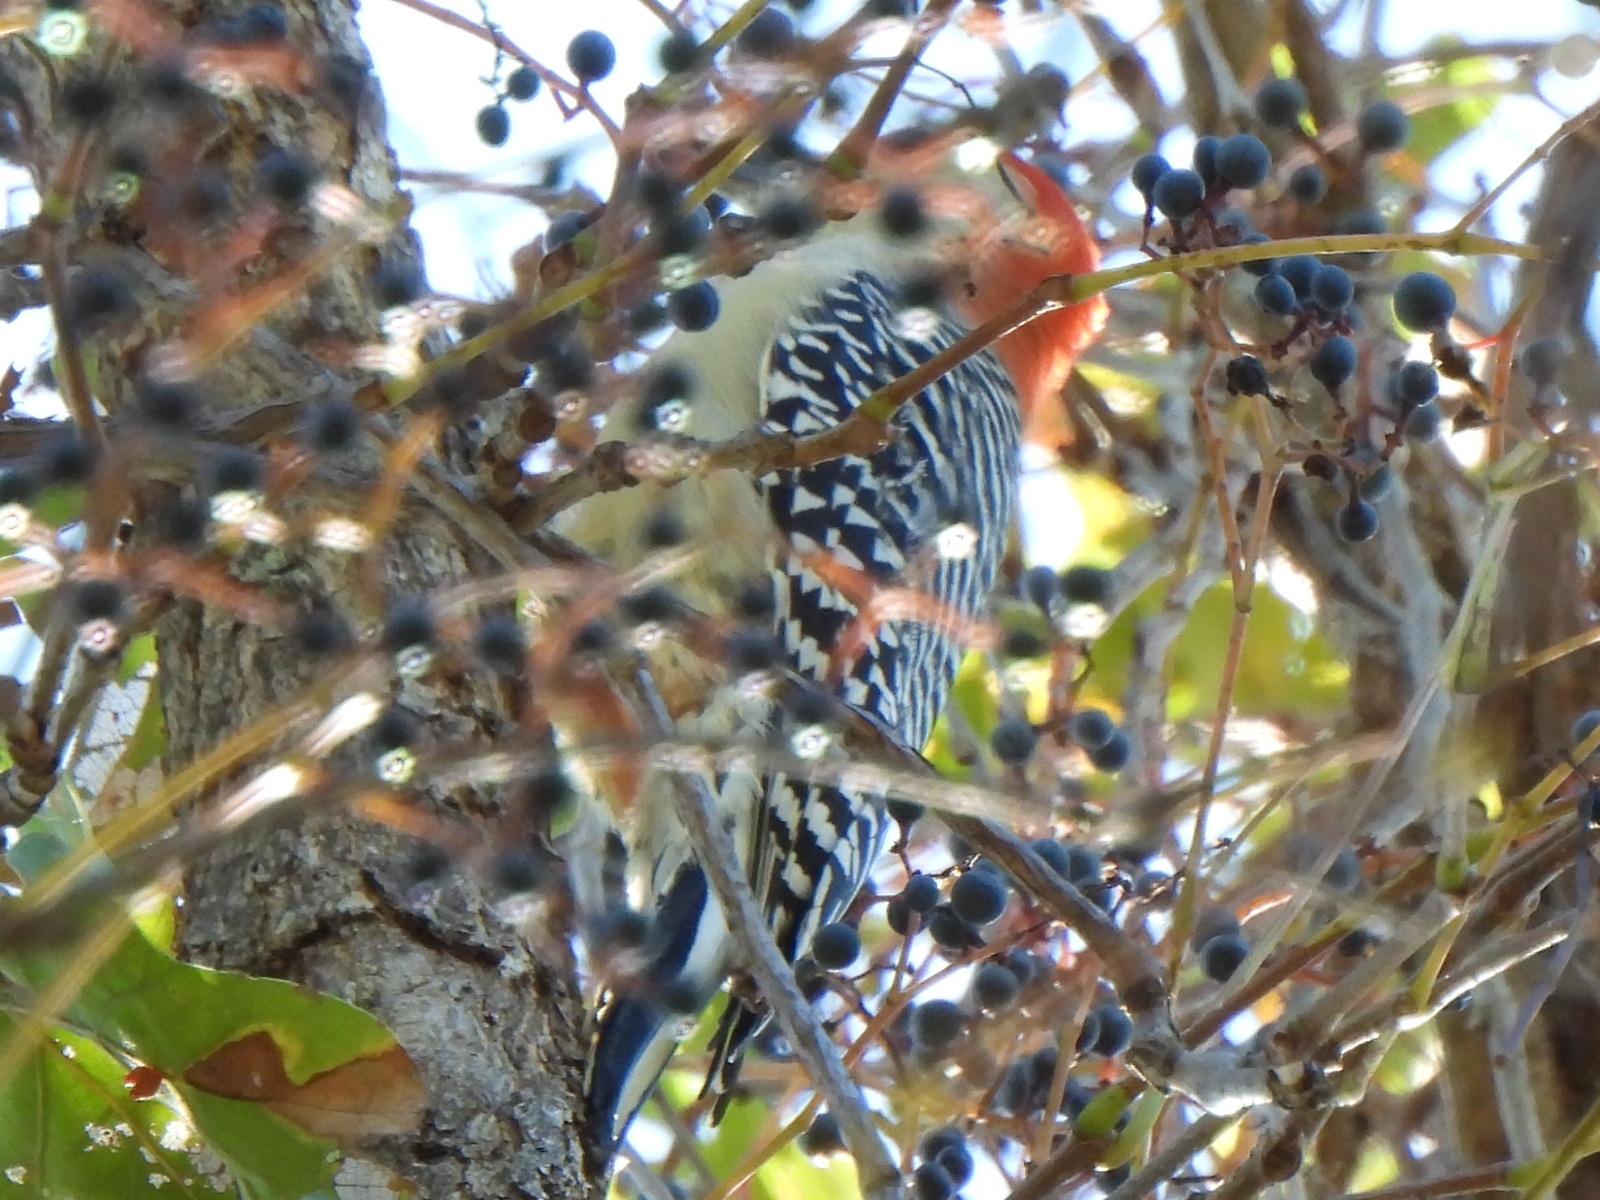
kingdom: Animalia
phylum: Chordata
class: Aves
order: Piciformes
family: Picidae
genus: Melanerpes
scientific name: Melanerpes carolinus
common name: Red-bellied woodpecker
